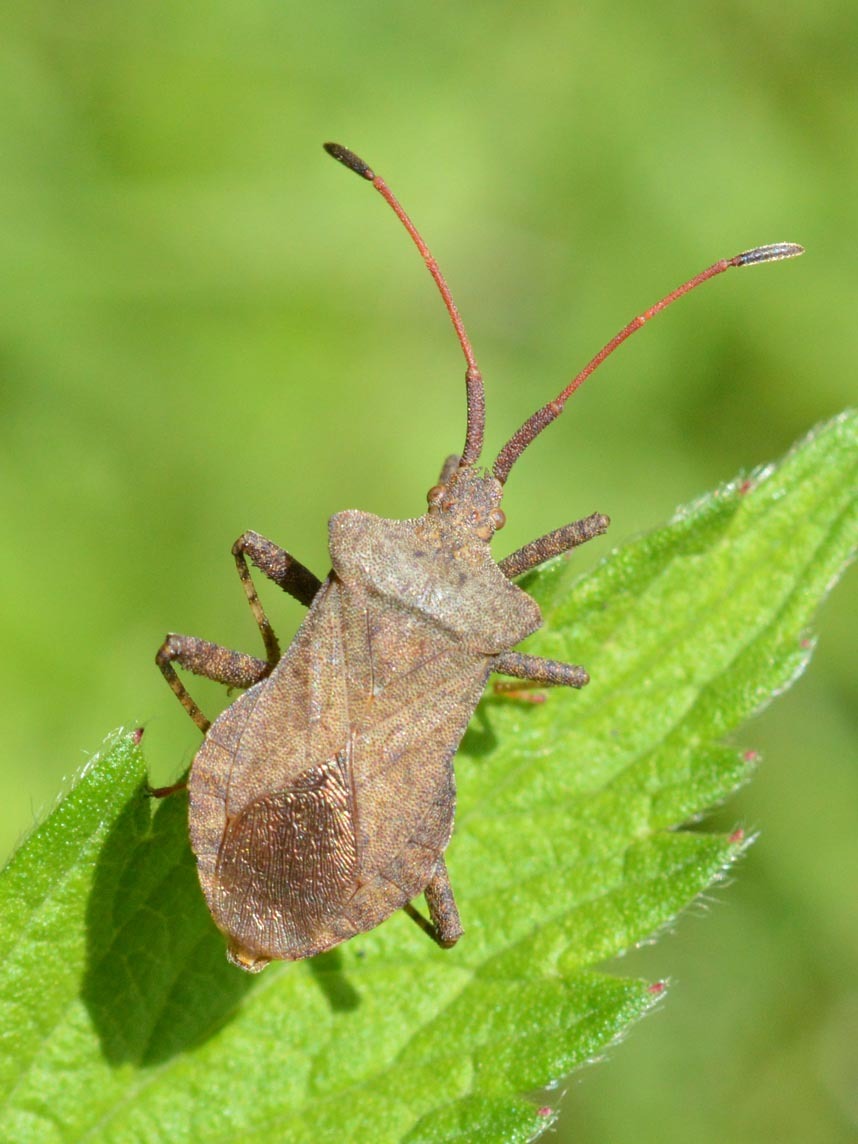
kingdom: Animalia
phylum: Arthropoda
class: Insecta
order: Hemiptera
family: Coreidae
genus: Coreus
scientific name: Coreus marginatus
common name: Dock bug
